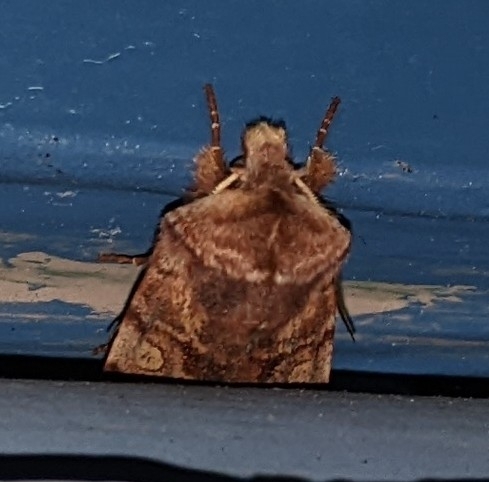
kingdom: Animalia
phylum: Arthropoda
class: Insecta
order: Lepidoptera
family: Noctuidae
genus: Cerastis
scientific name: Cerastis salicarum
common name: Willow dart
